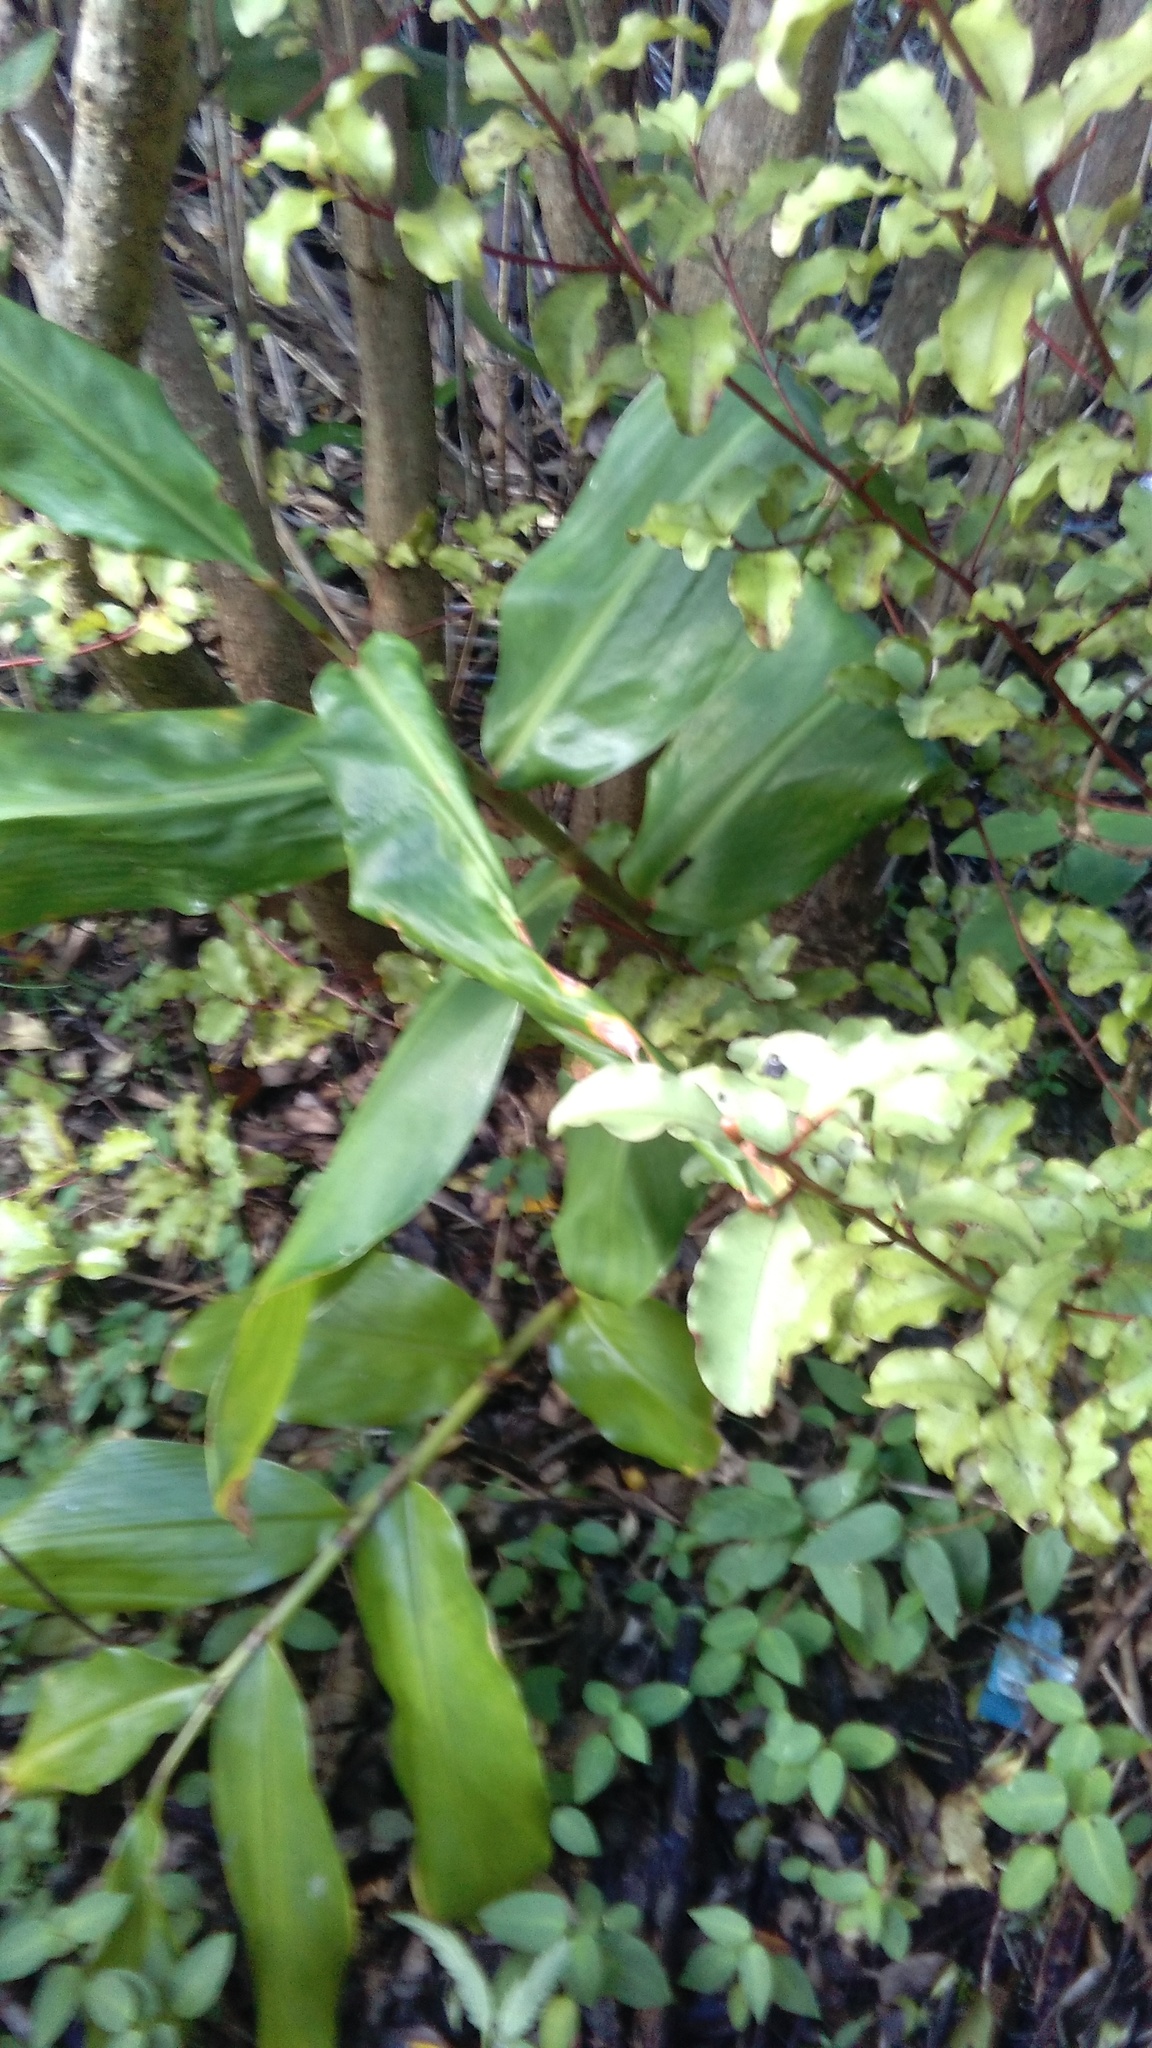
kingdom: Plantae
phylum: Tracheophyta
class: Liliopsida
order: Zingiberales
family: Zingiberaceae
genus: Hedychium
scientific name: Hedychium gardnerianum
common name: Himalayan ginger
